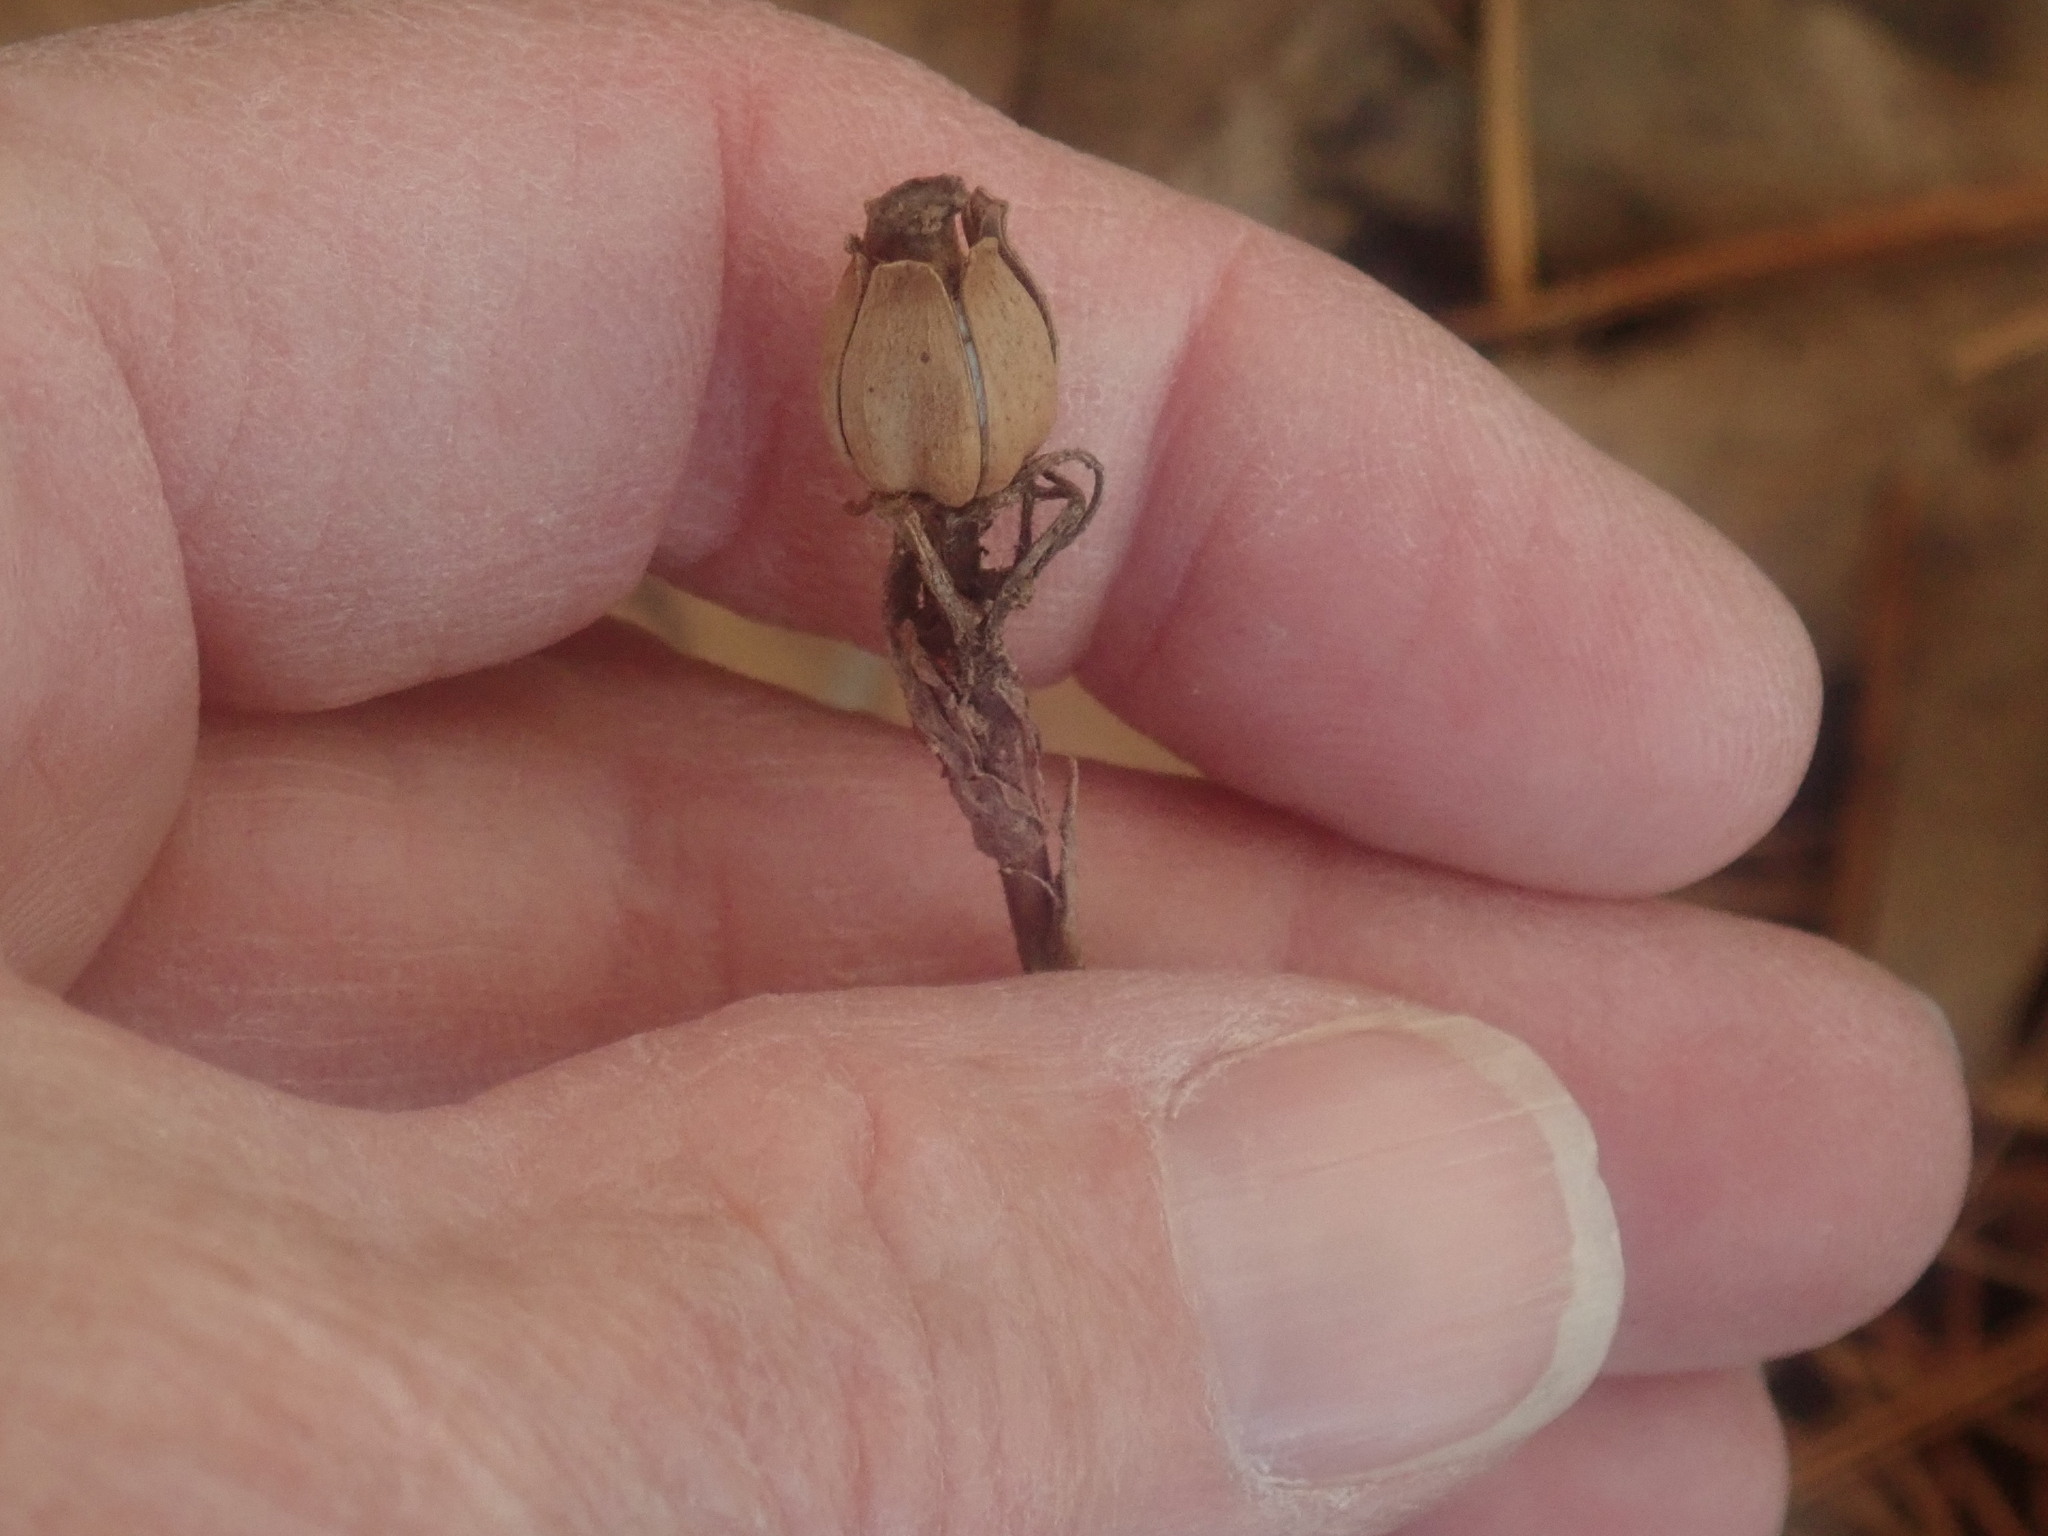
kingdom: Plantae
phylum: Tracheophyta
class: Magnoliopsida
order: Ericales
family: Ericaceae
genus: Monotropa
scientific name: Monotropa uniflora
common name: Convulsion root
